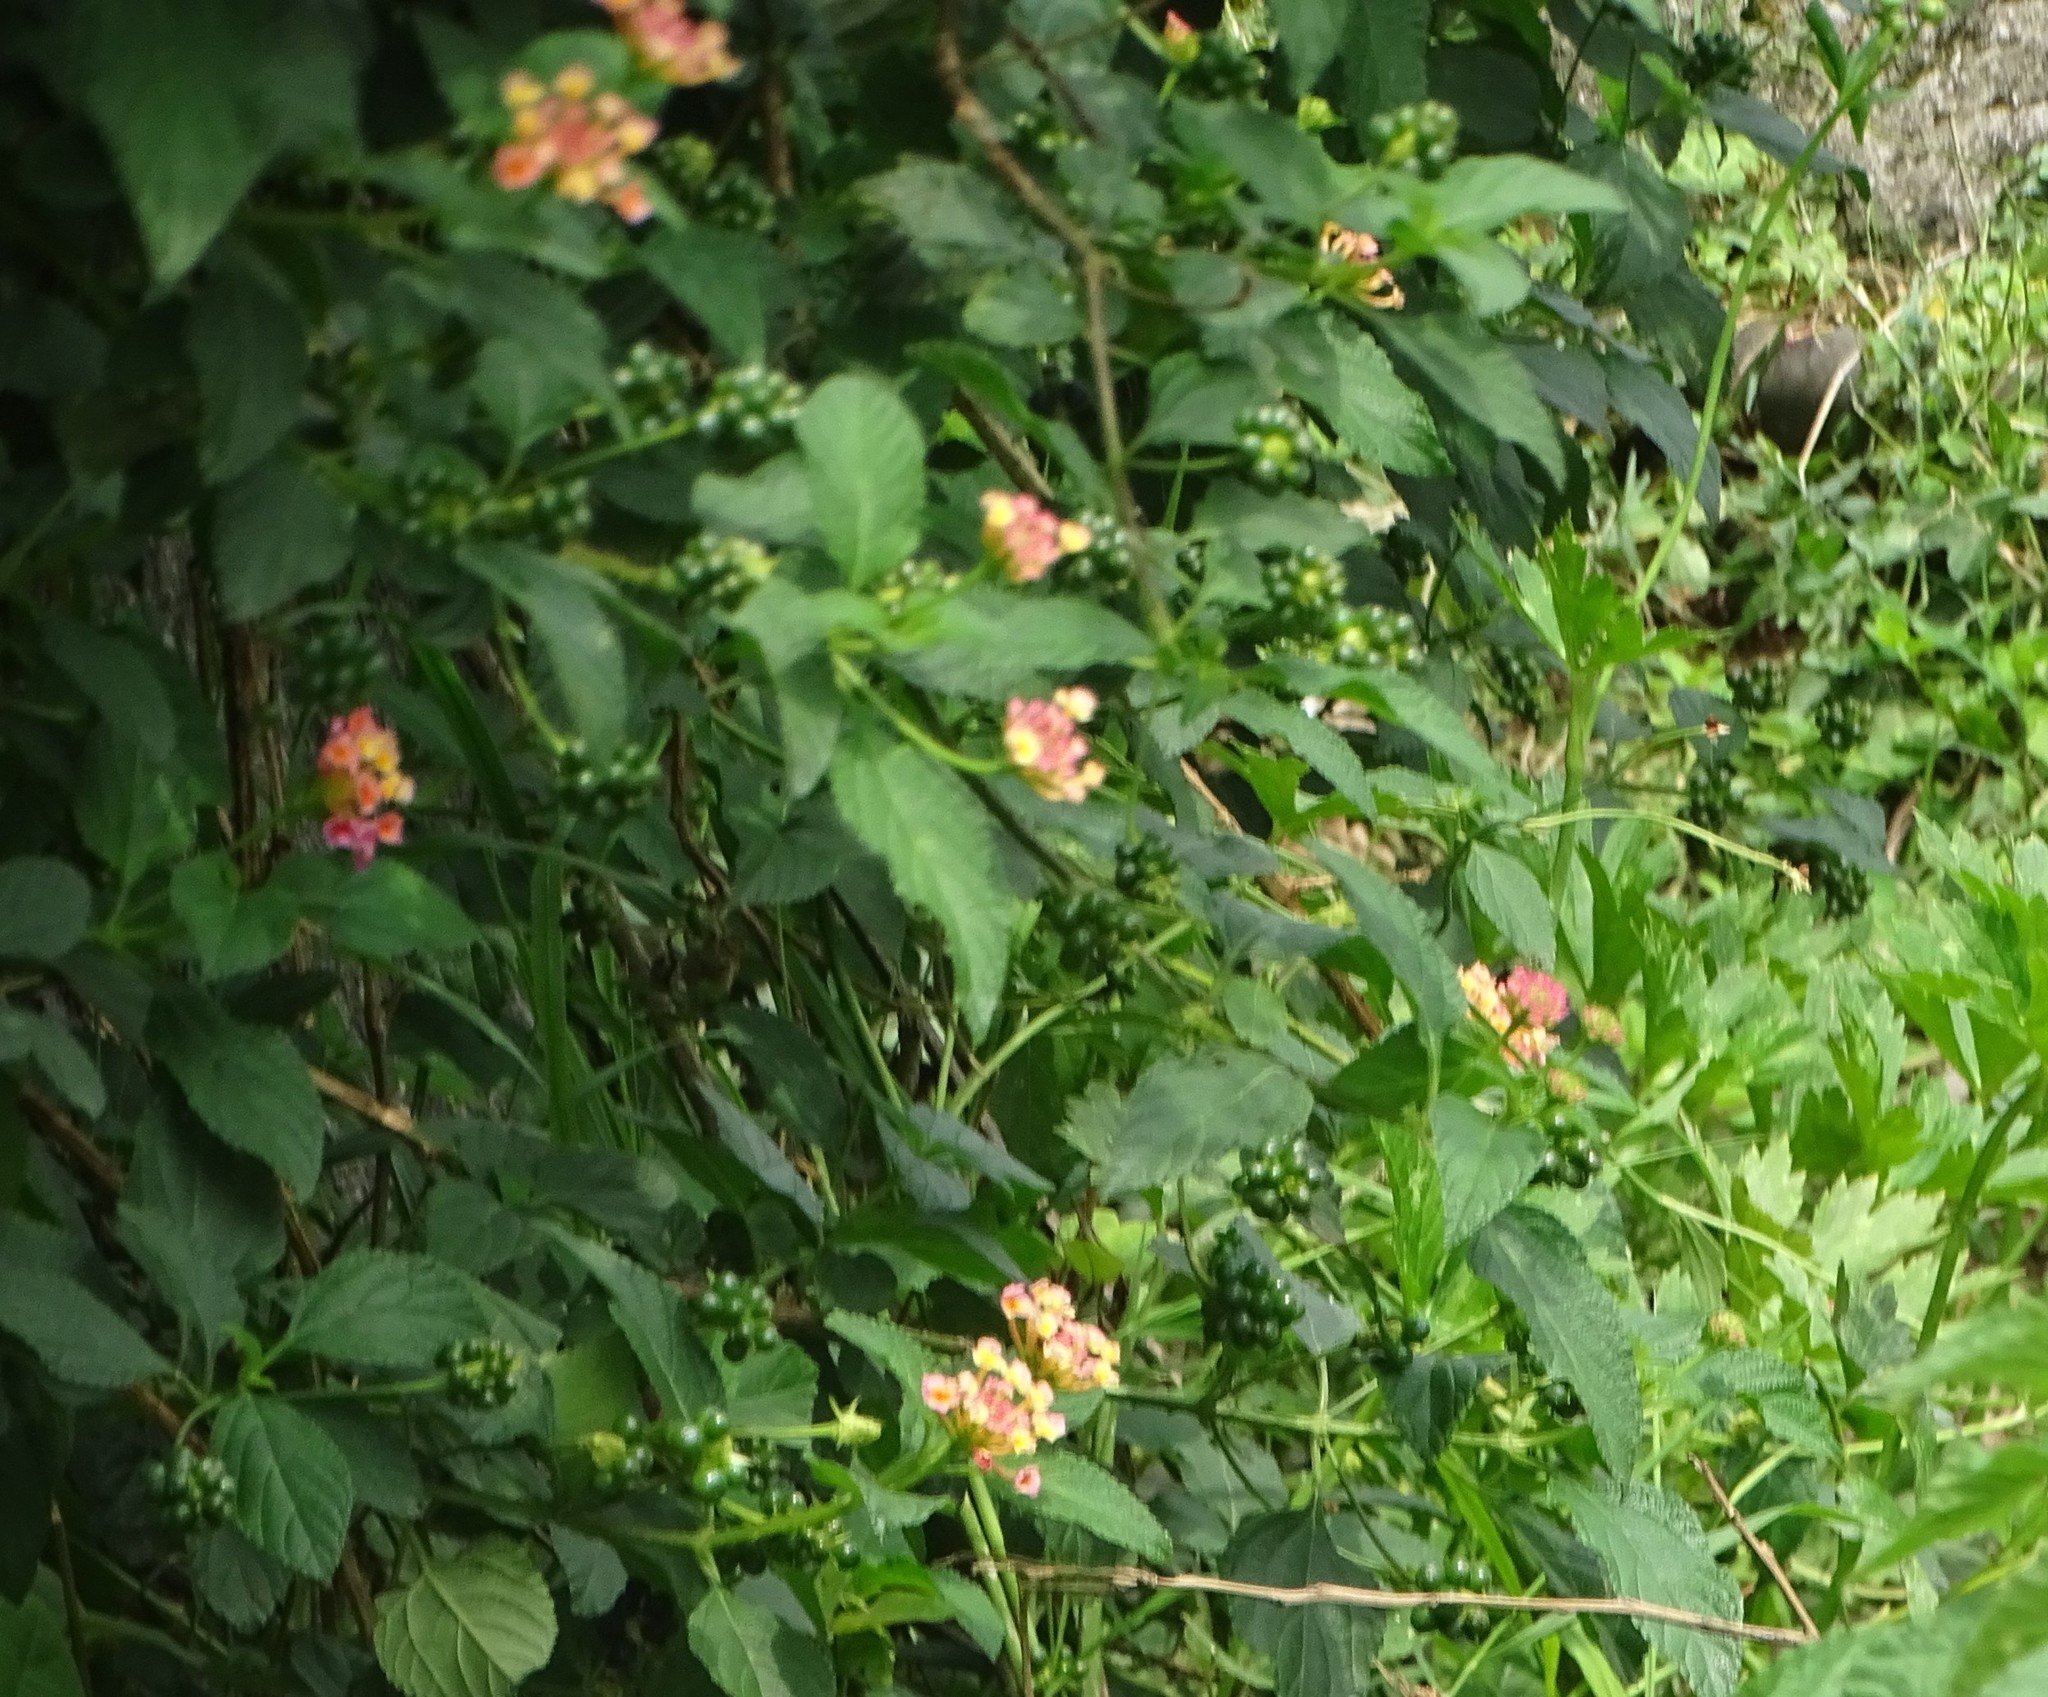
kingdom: Plantae
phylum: Tracheophyta
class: Magnoliopsida
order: Lamiales
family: Verbenaceae
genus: Lantana
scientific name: Lantana camara
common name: Lantana
